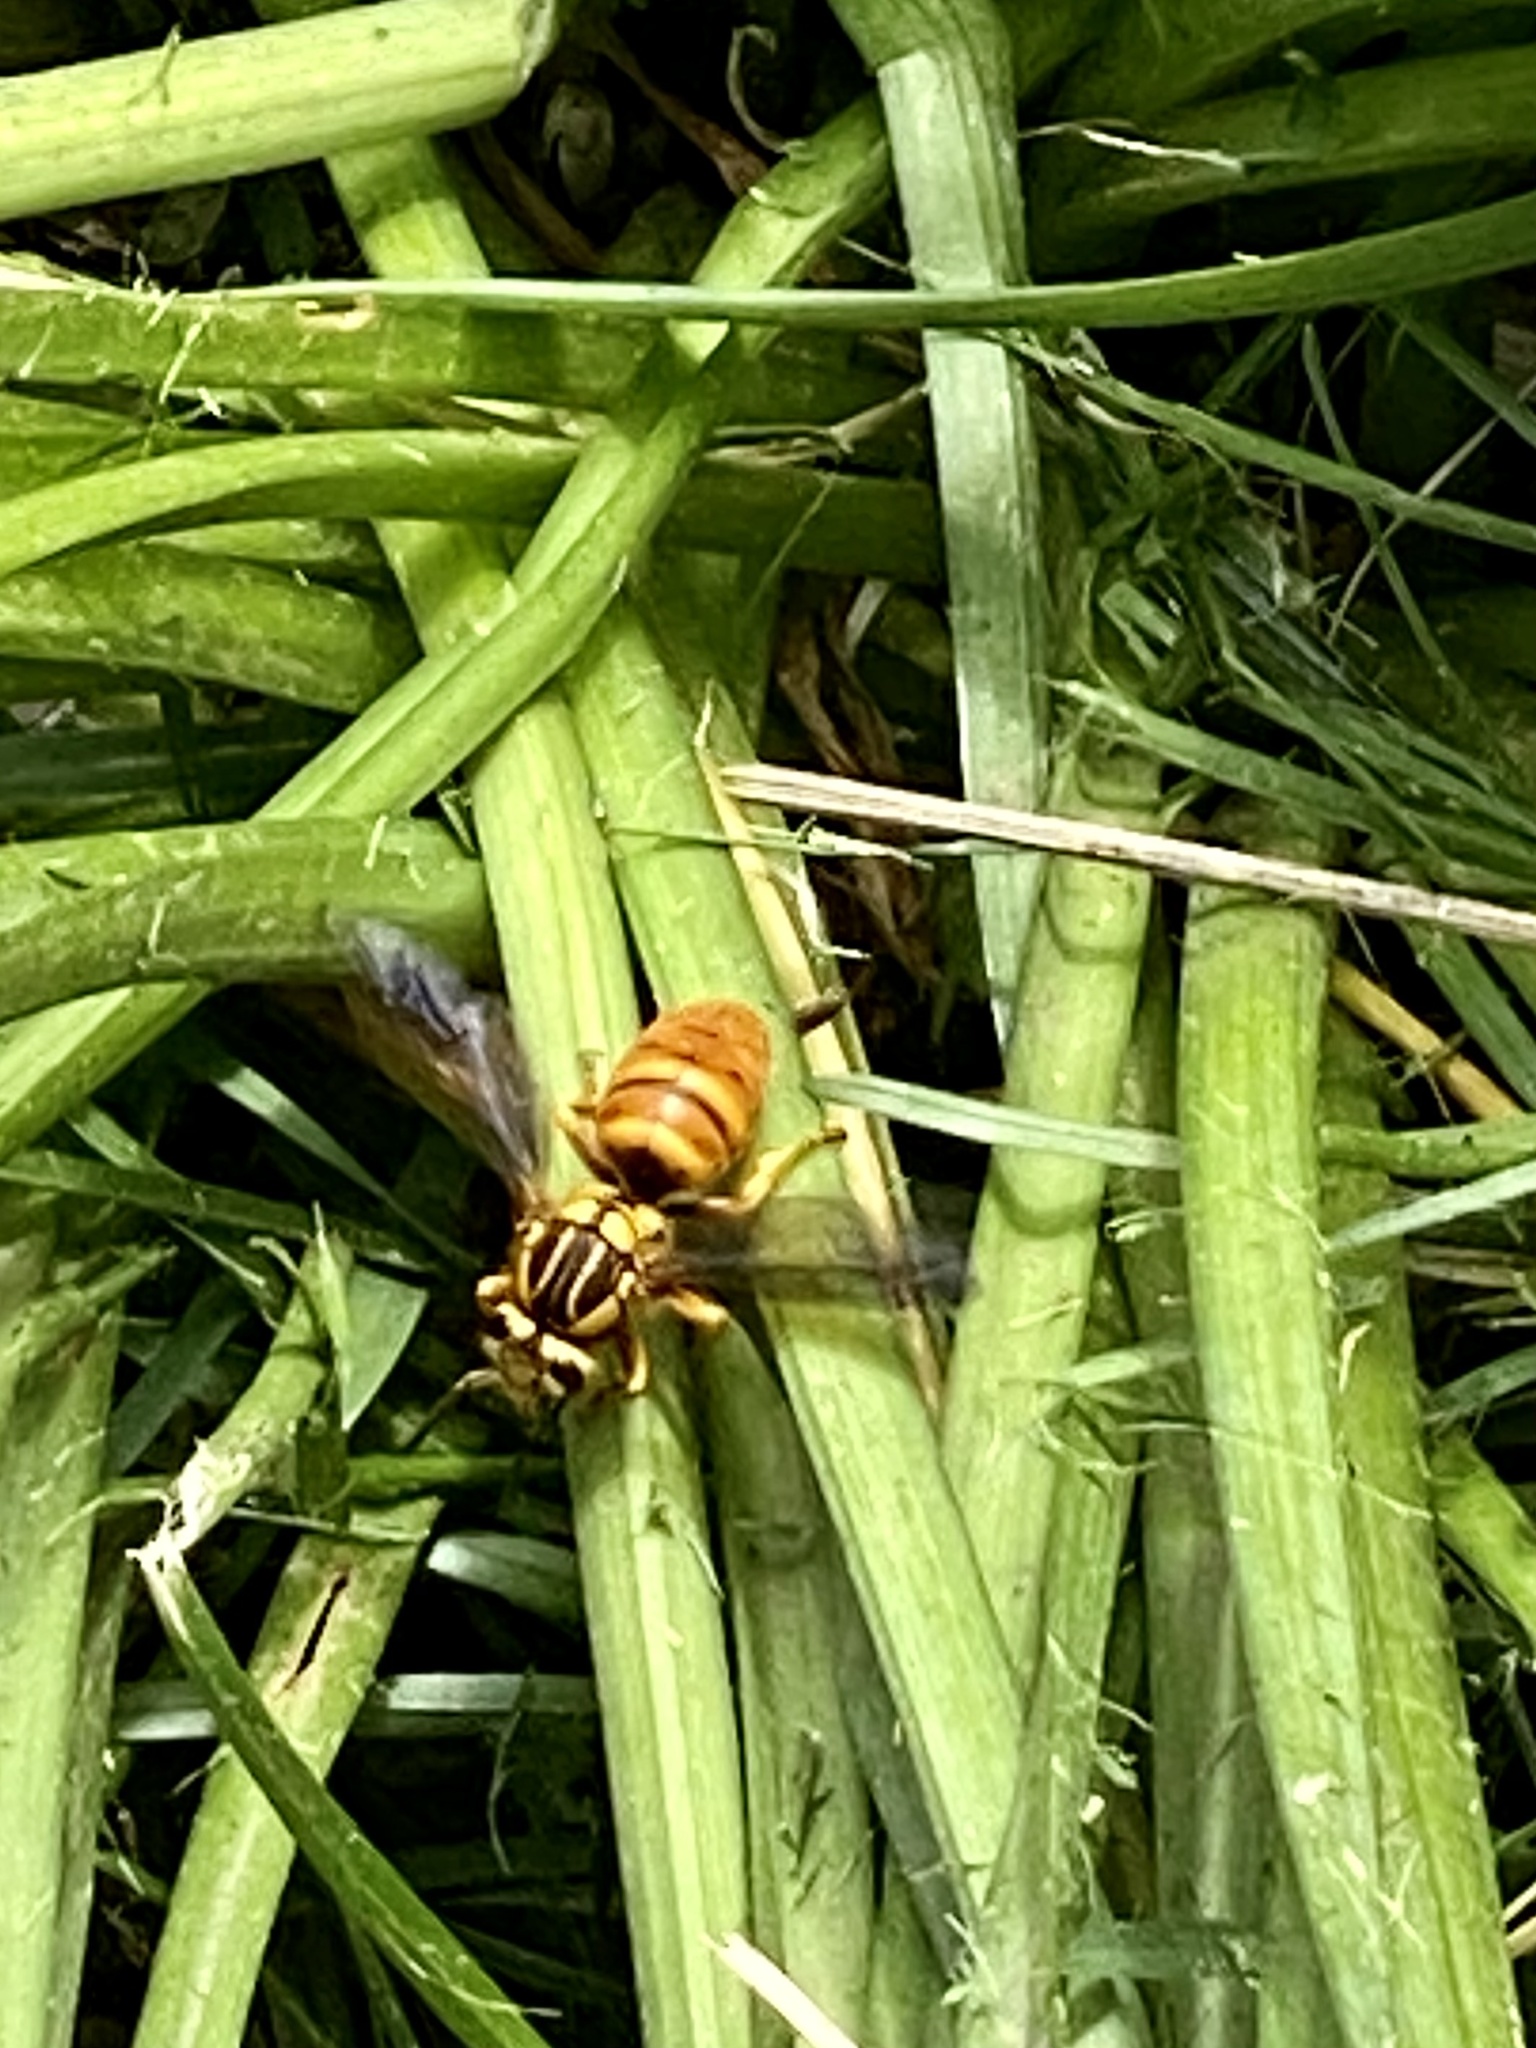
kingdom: Animalia
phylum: Arthropoda
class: Insecta
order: Hymenoptera
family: Vespidae
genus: Vespula
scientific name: Vespula squamosa
